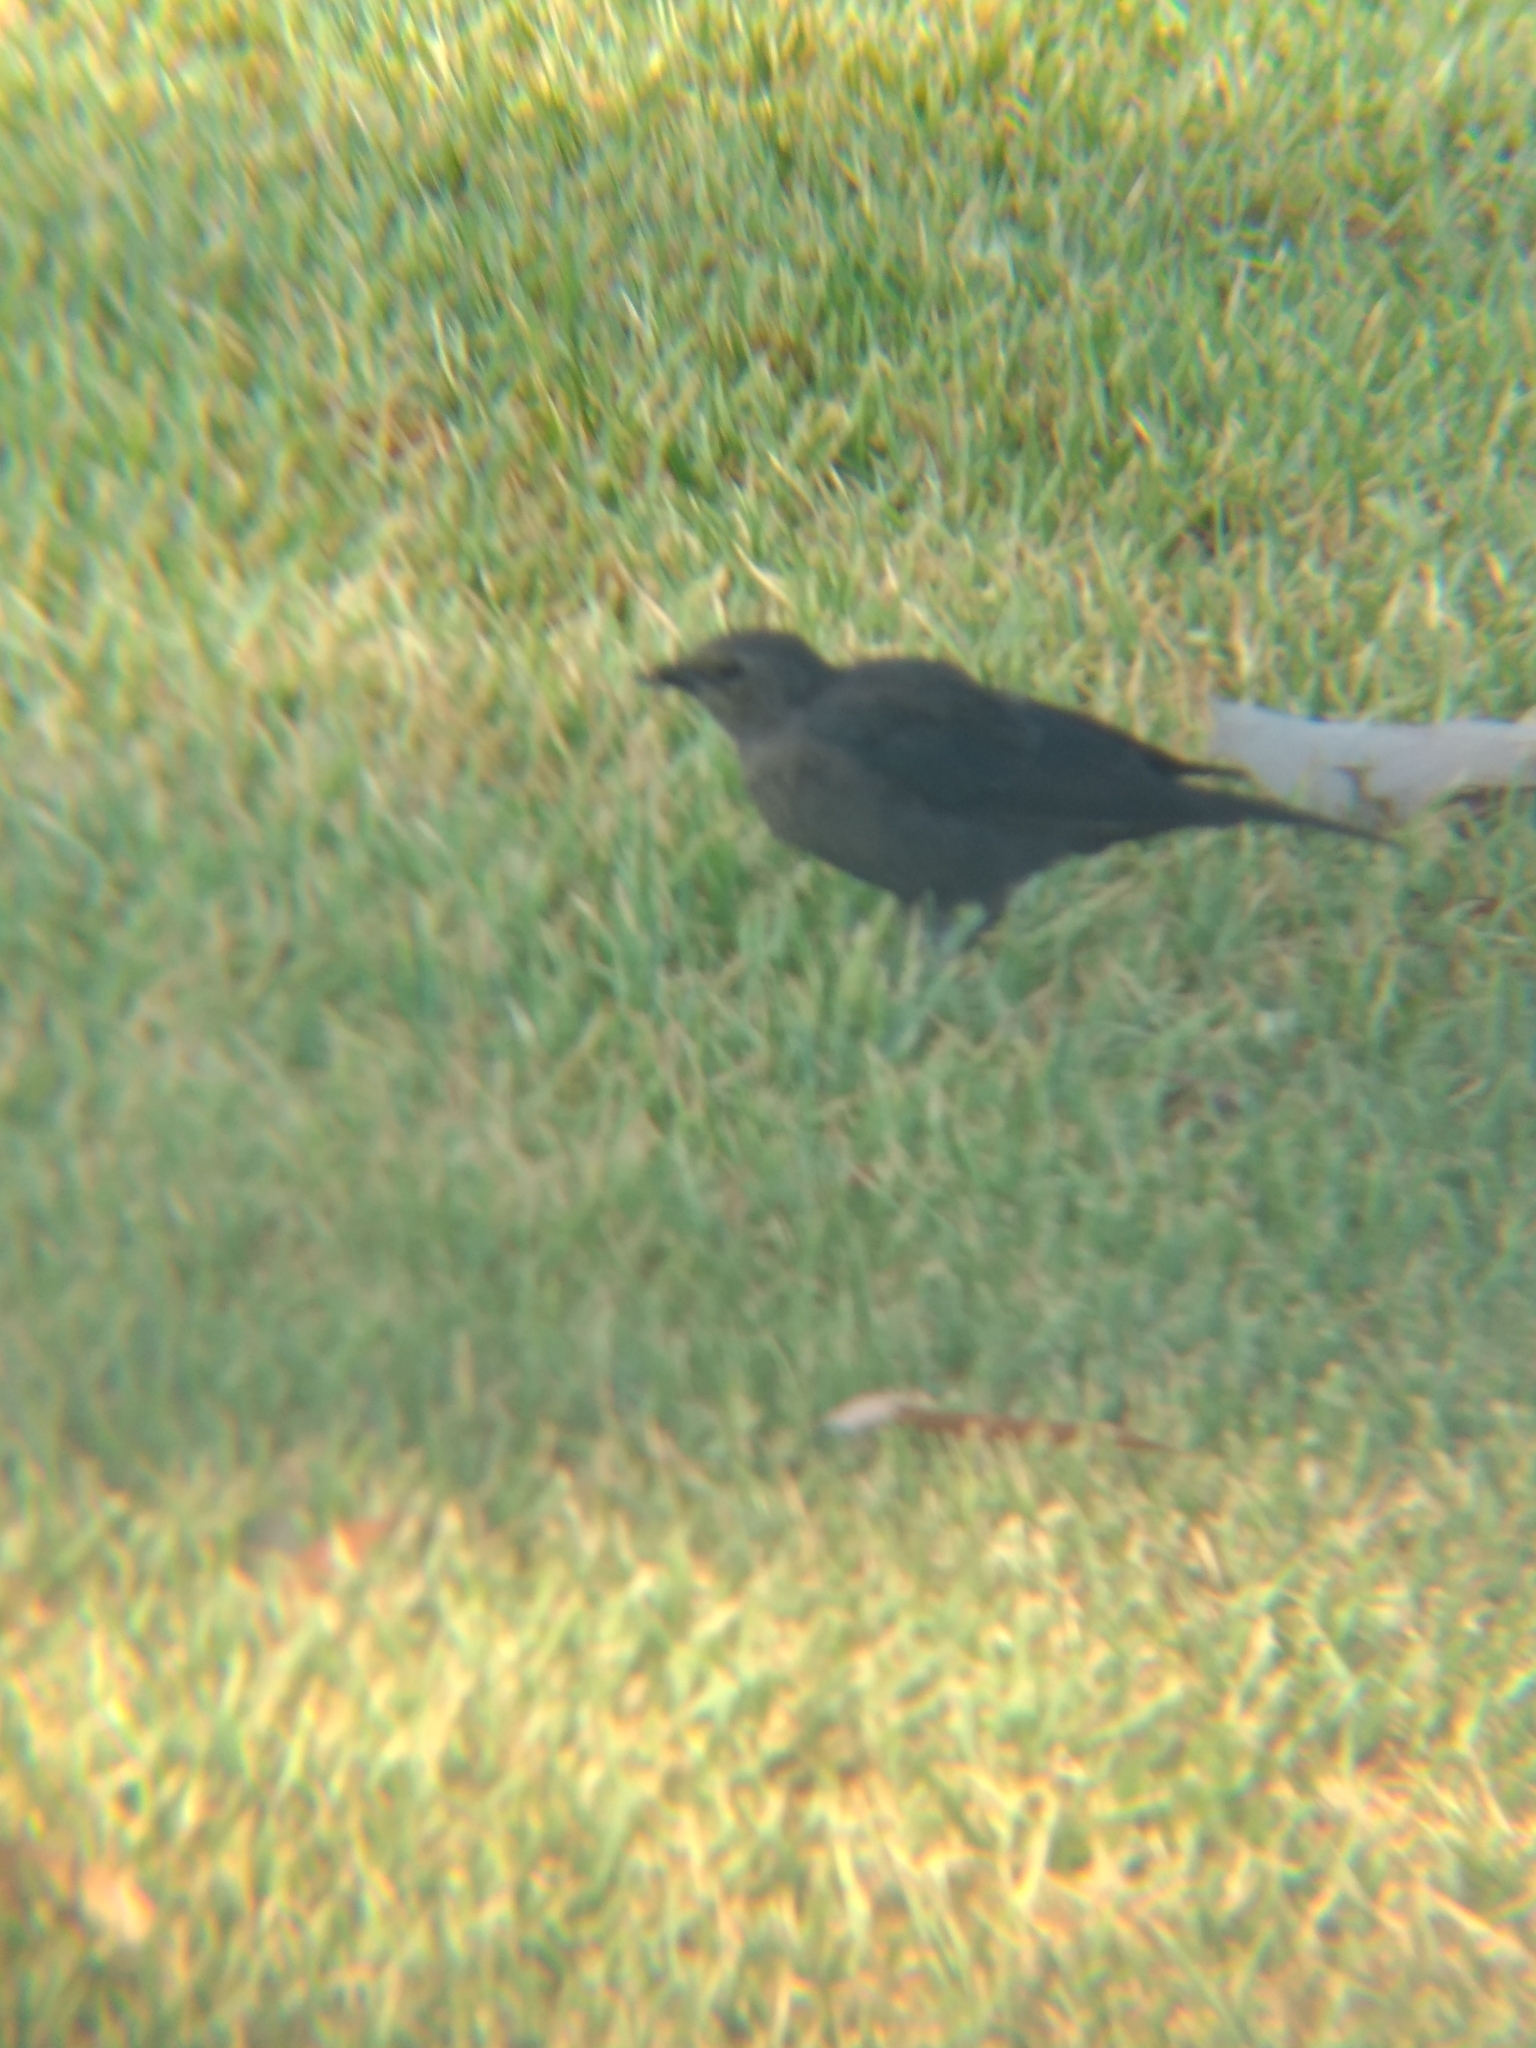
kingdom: Animalia
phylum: Chordata
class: Aves
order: Passeriformes
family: Icteridae
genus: Euphagus
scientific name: Euphagus cyanocephalus
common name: Brewer's blackbird
